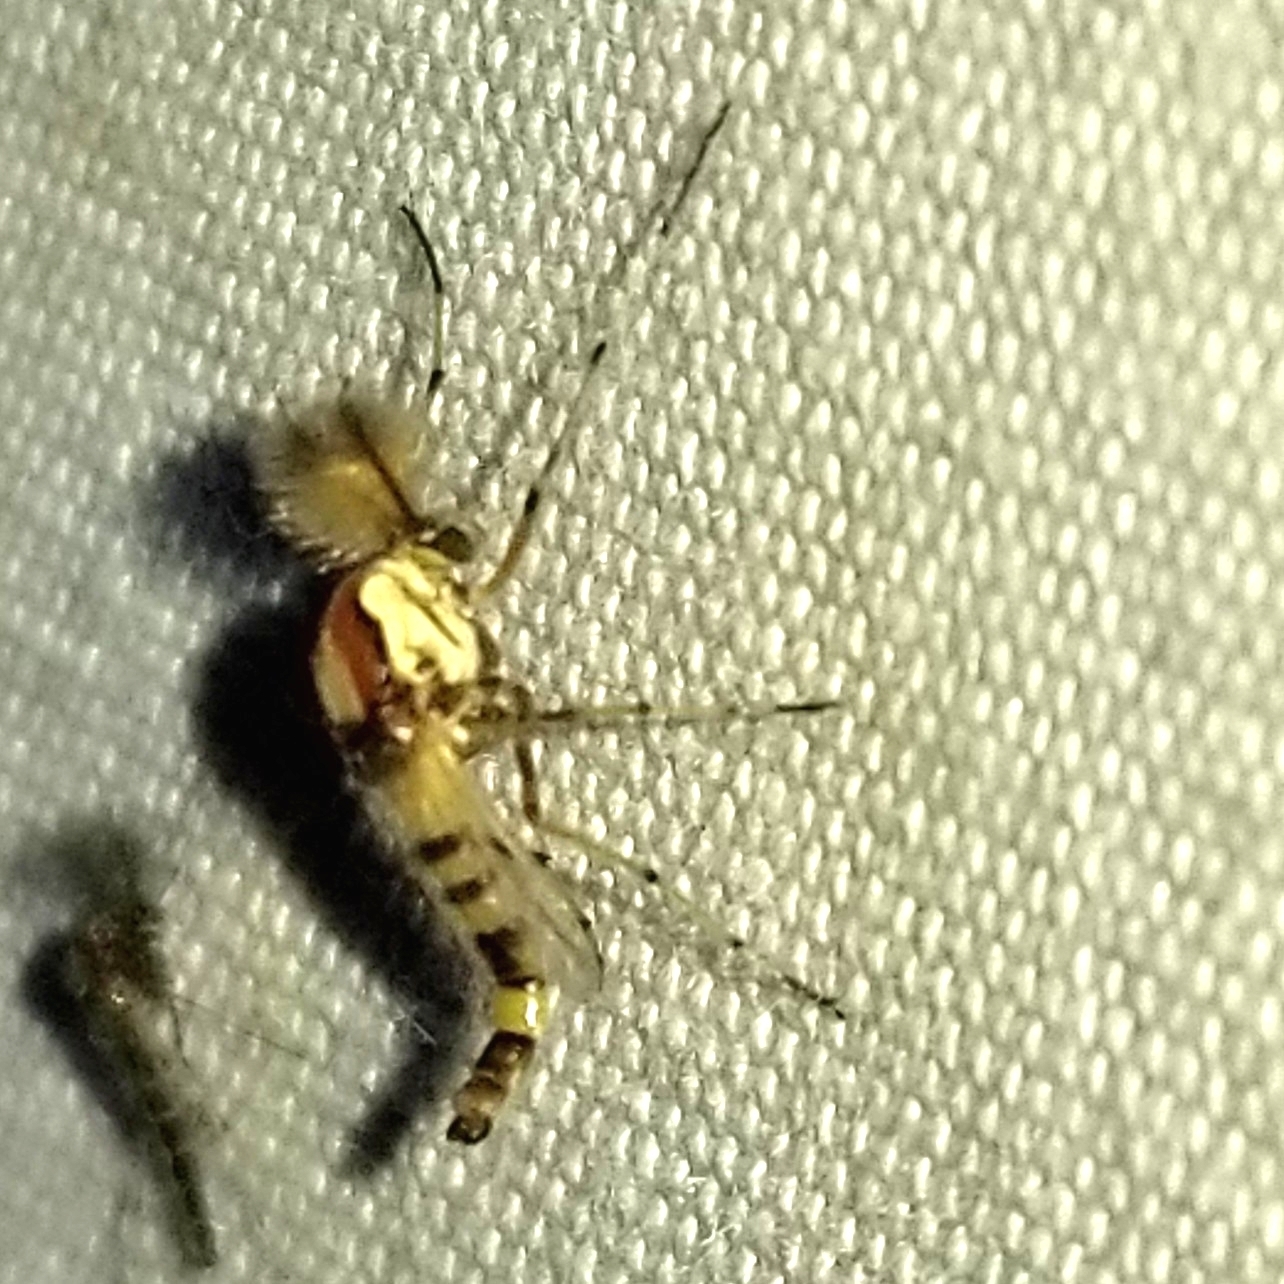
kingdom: Animalia
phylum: Arthropoda
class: Insecta
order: Diptera
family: Chironomidae
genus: Coelotanypus
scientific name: Coelotanypus
